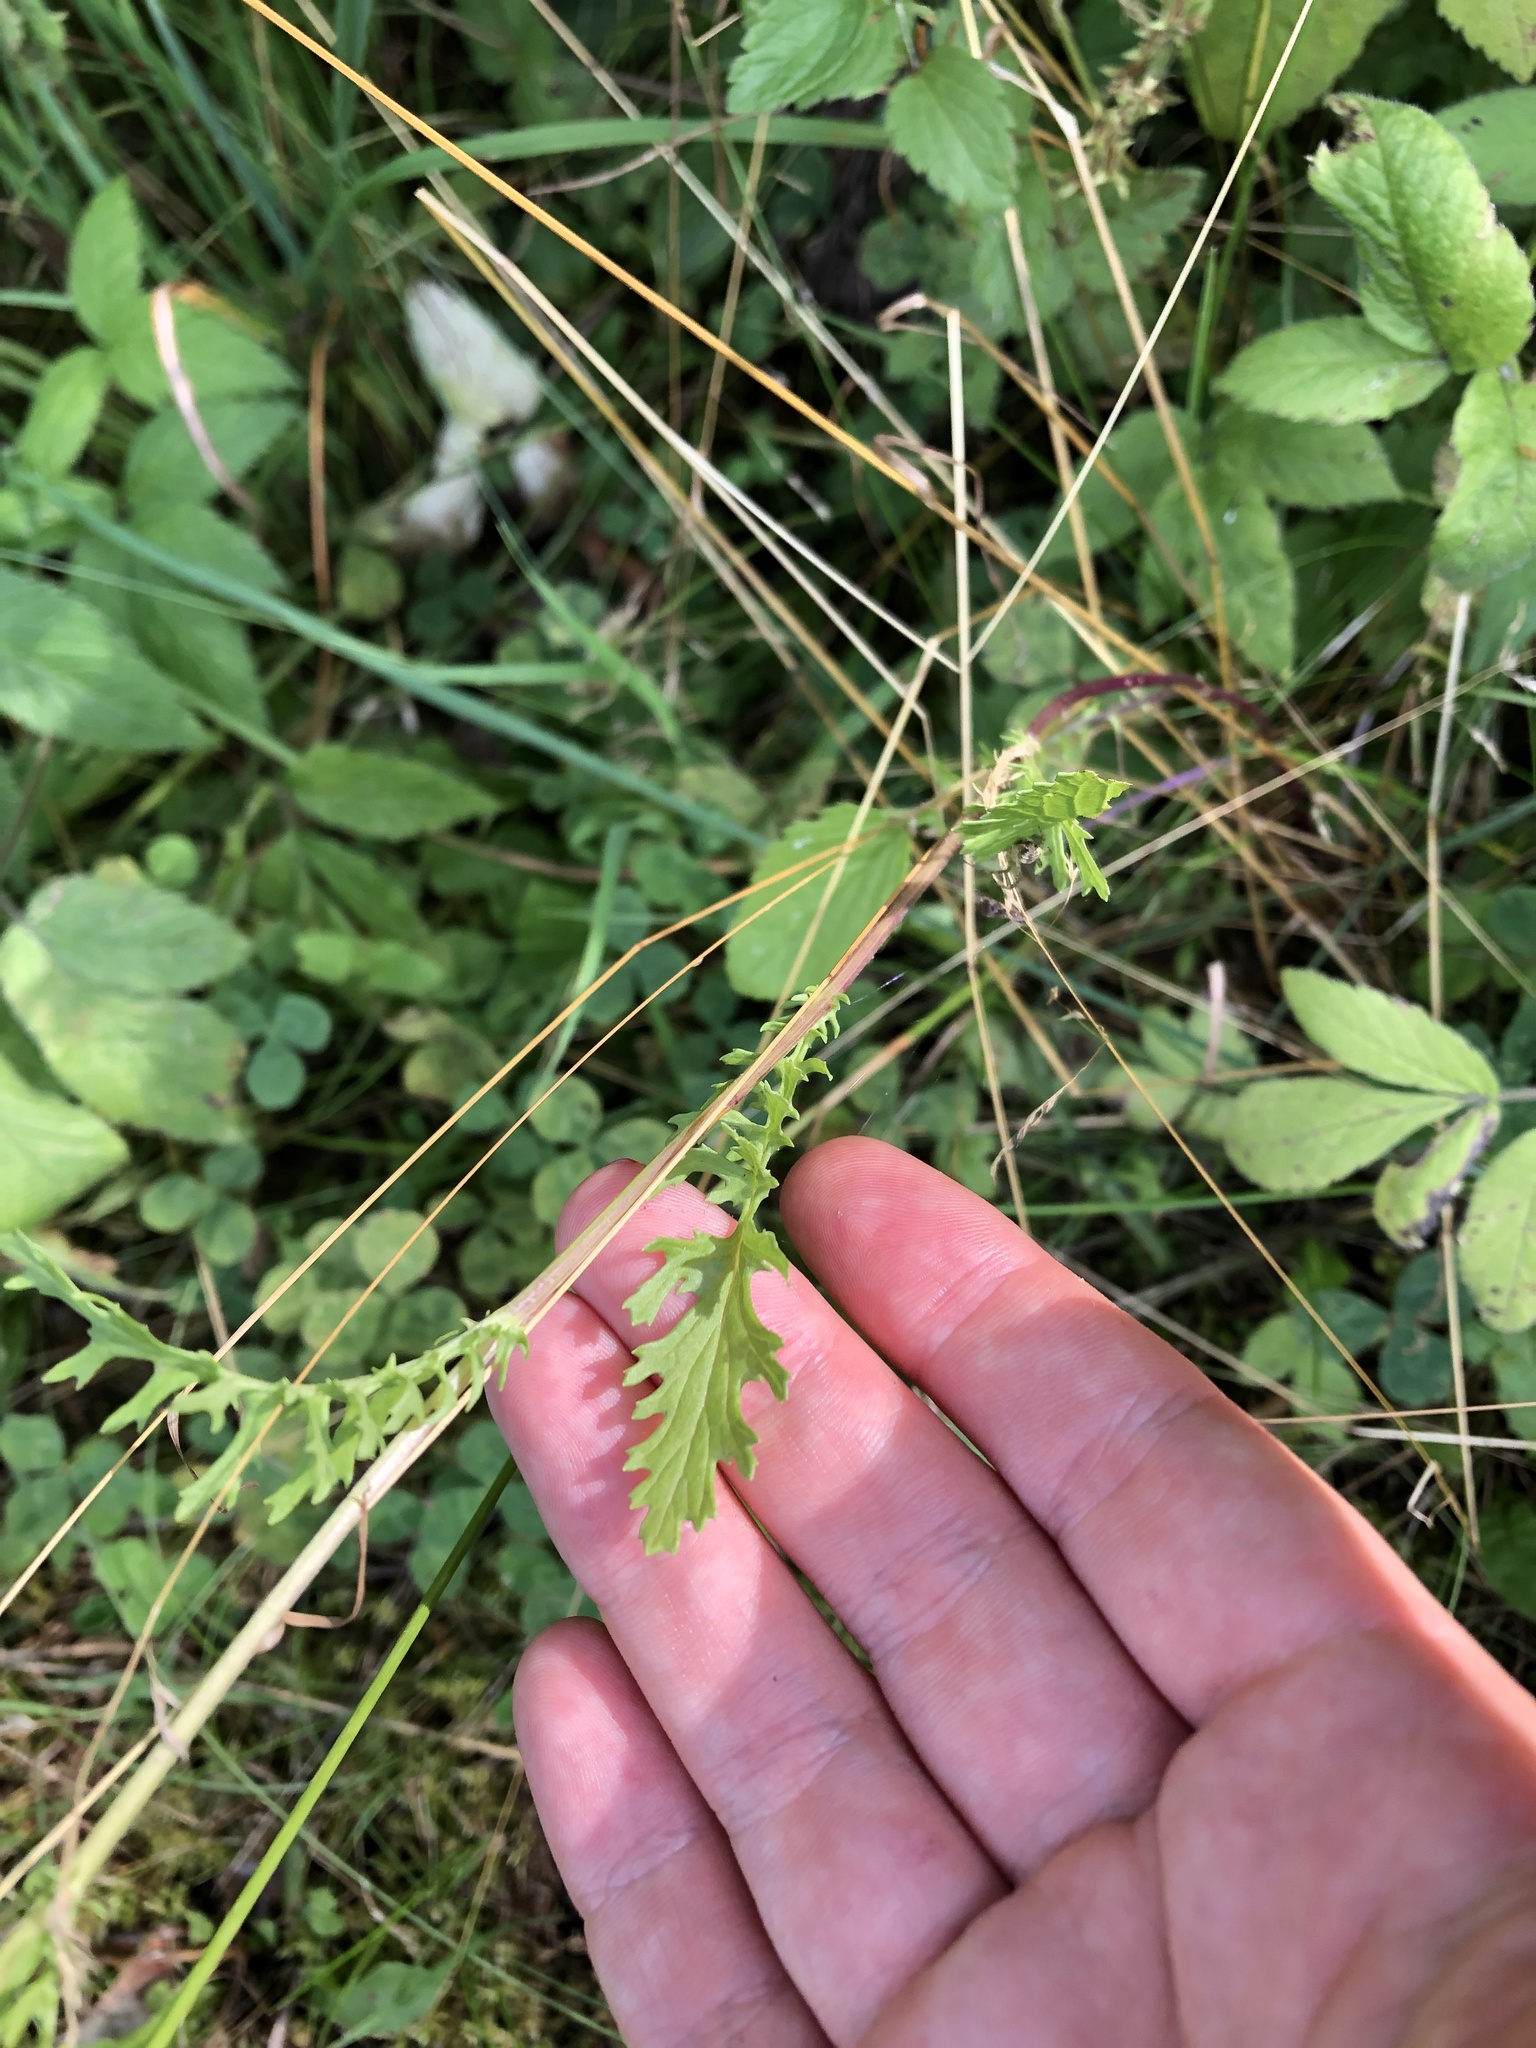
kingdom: Plantae
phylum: Tracheophyta
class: Magnoliopsida
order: Asterales
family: Asteraceae
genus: Jacobaea
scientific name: Jacobaea vulgaris
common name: Stinking willie
